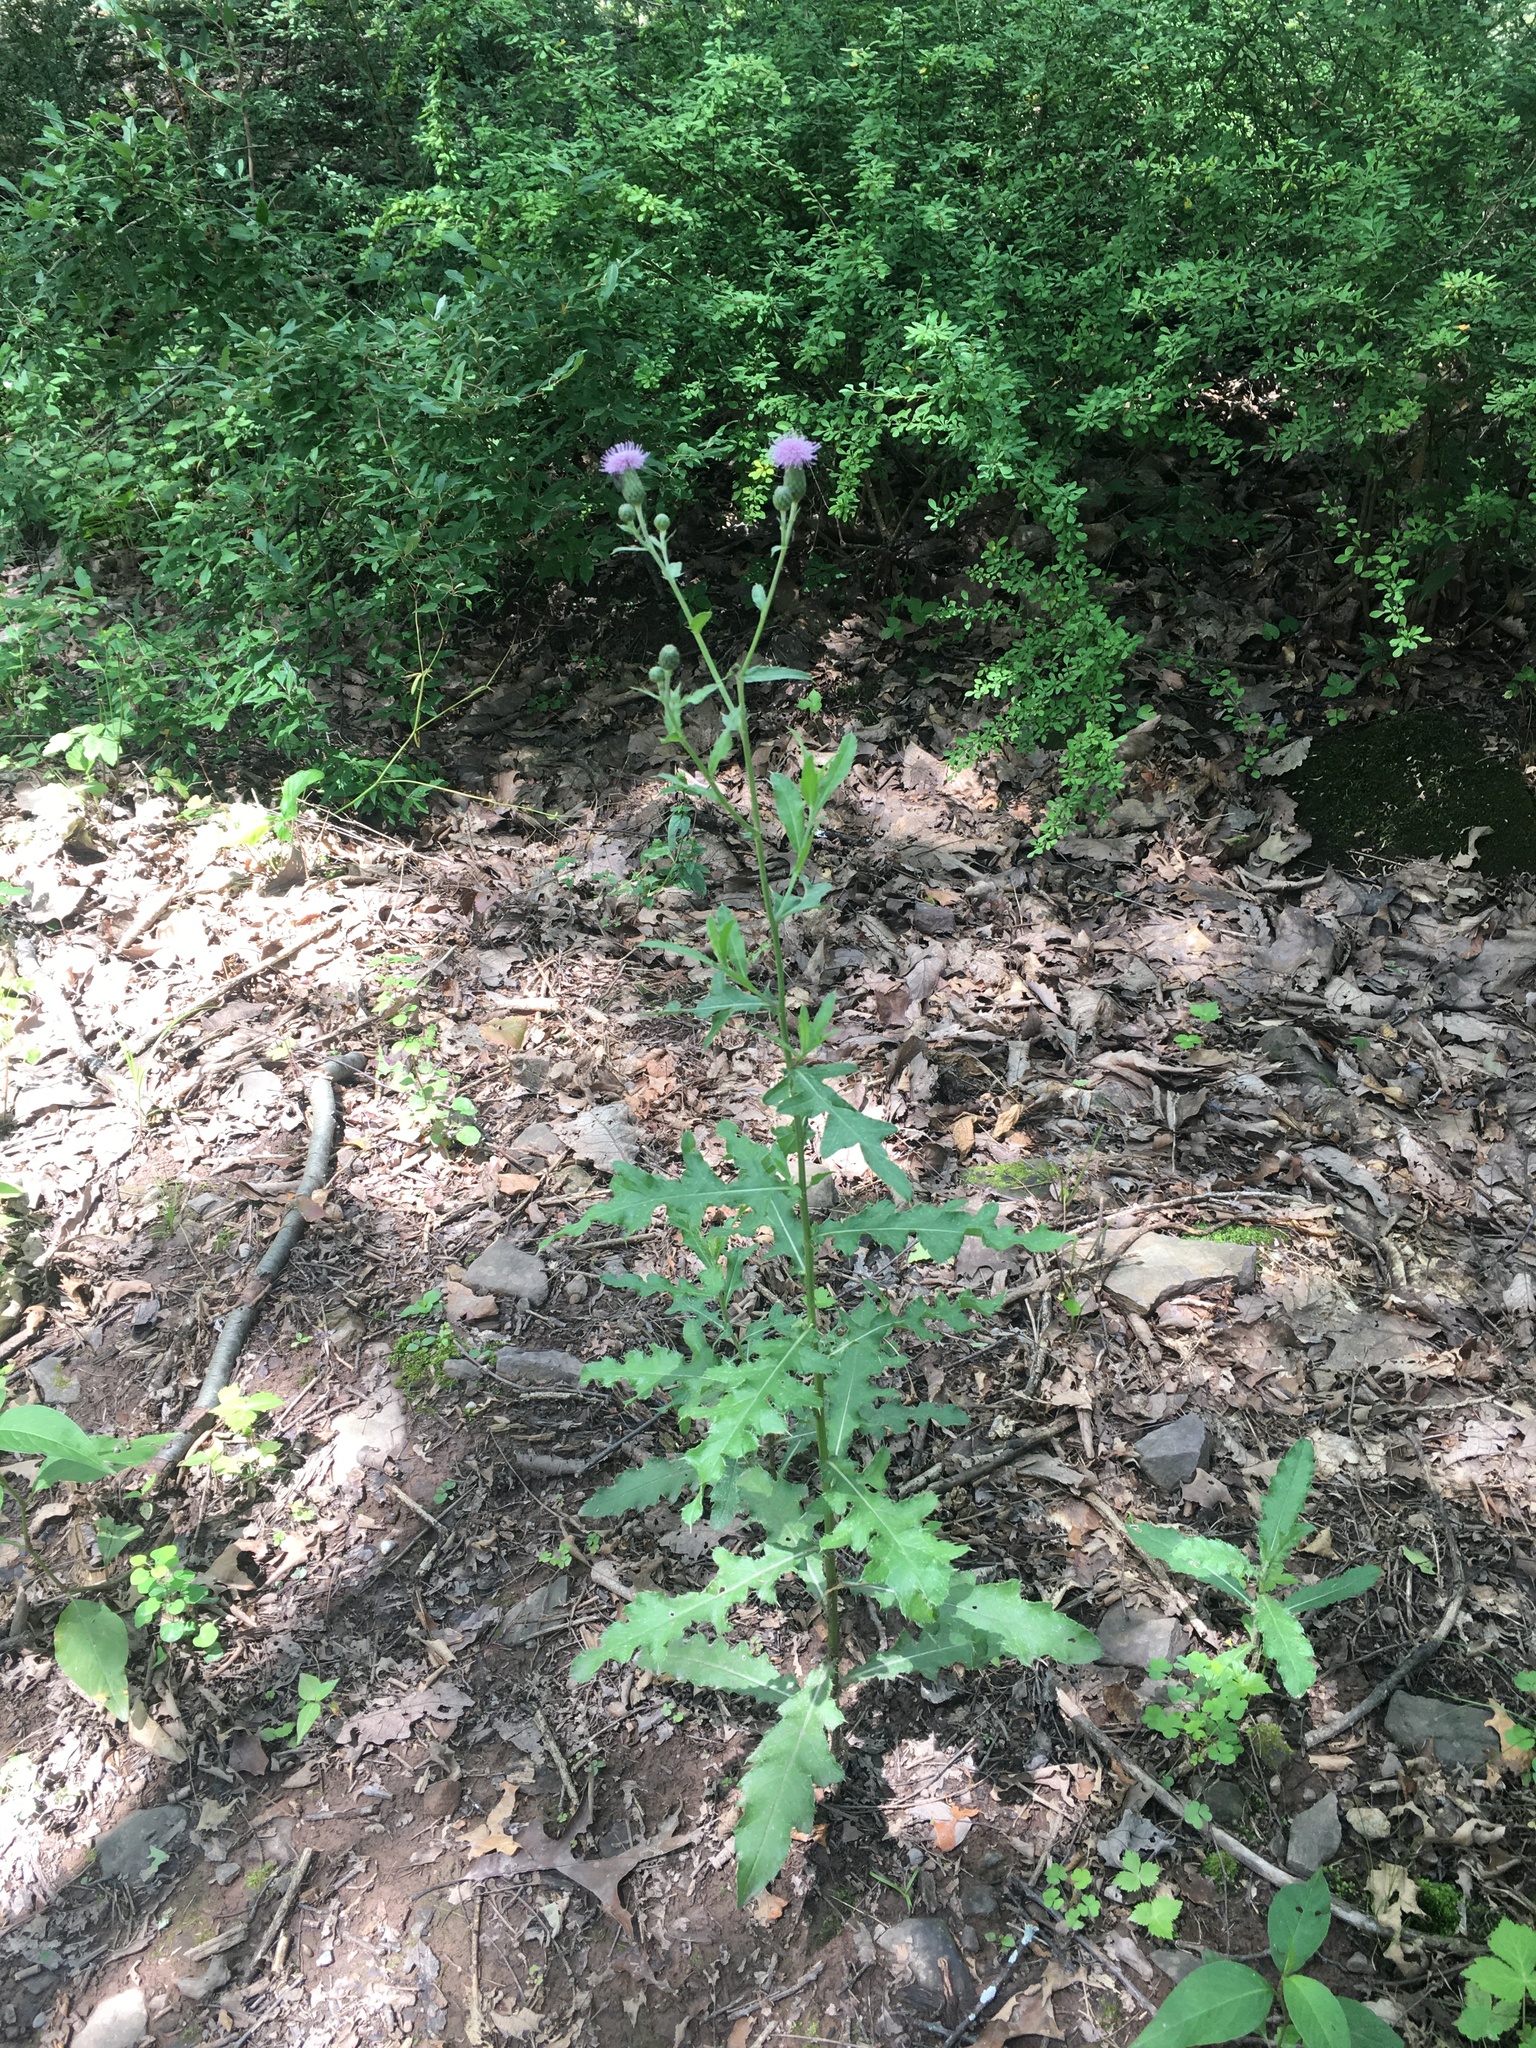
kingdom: Plantae
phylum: Tracheophyta
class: Magnoliopsida
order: Asterales
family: Asteraceae
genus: Cirsium
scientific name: Cirsium arvense
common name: Creeping thistle
